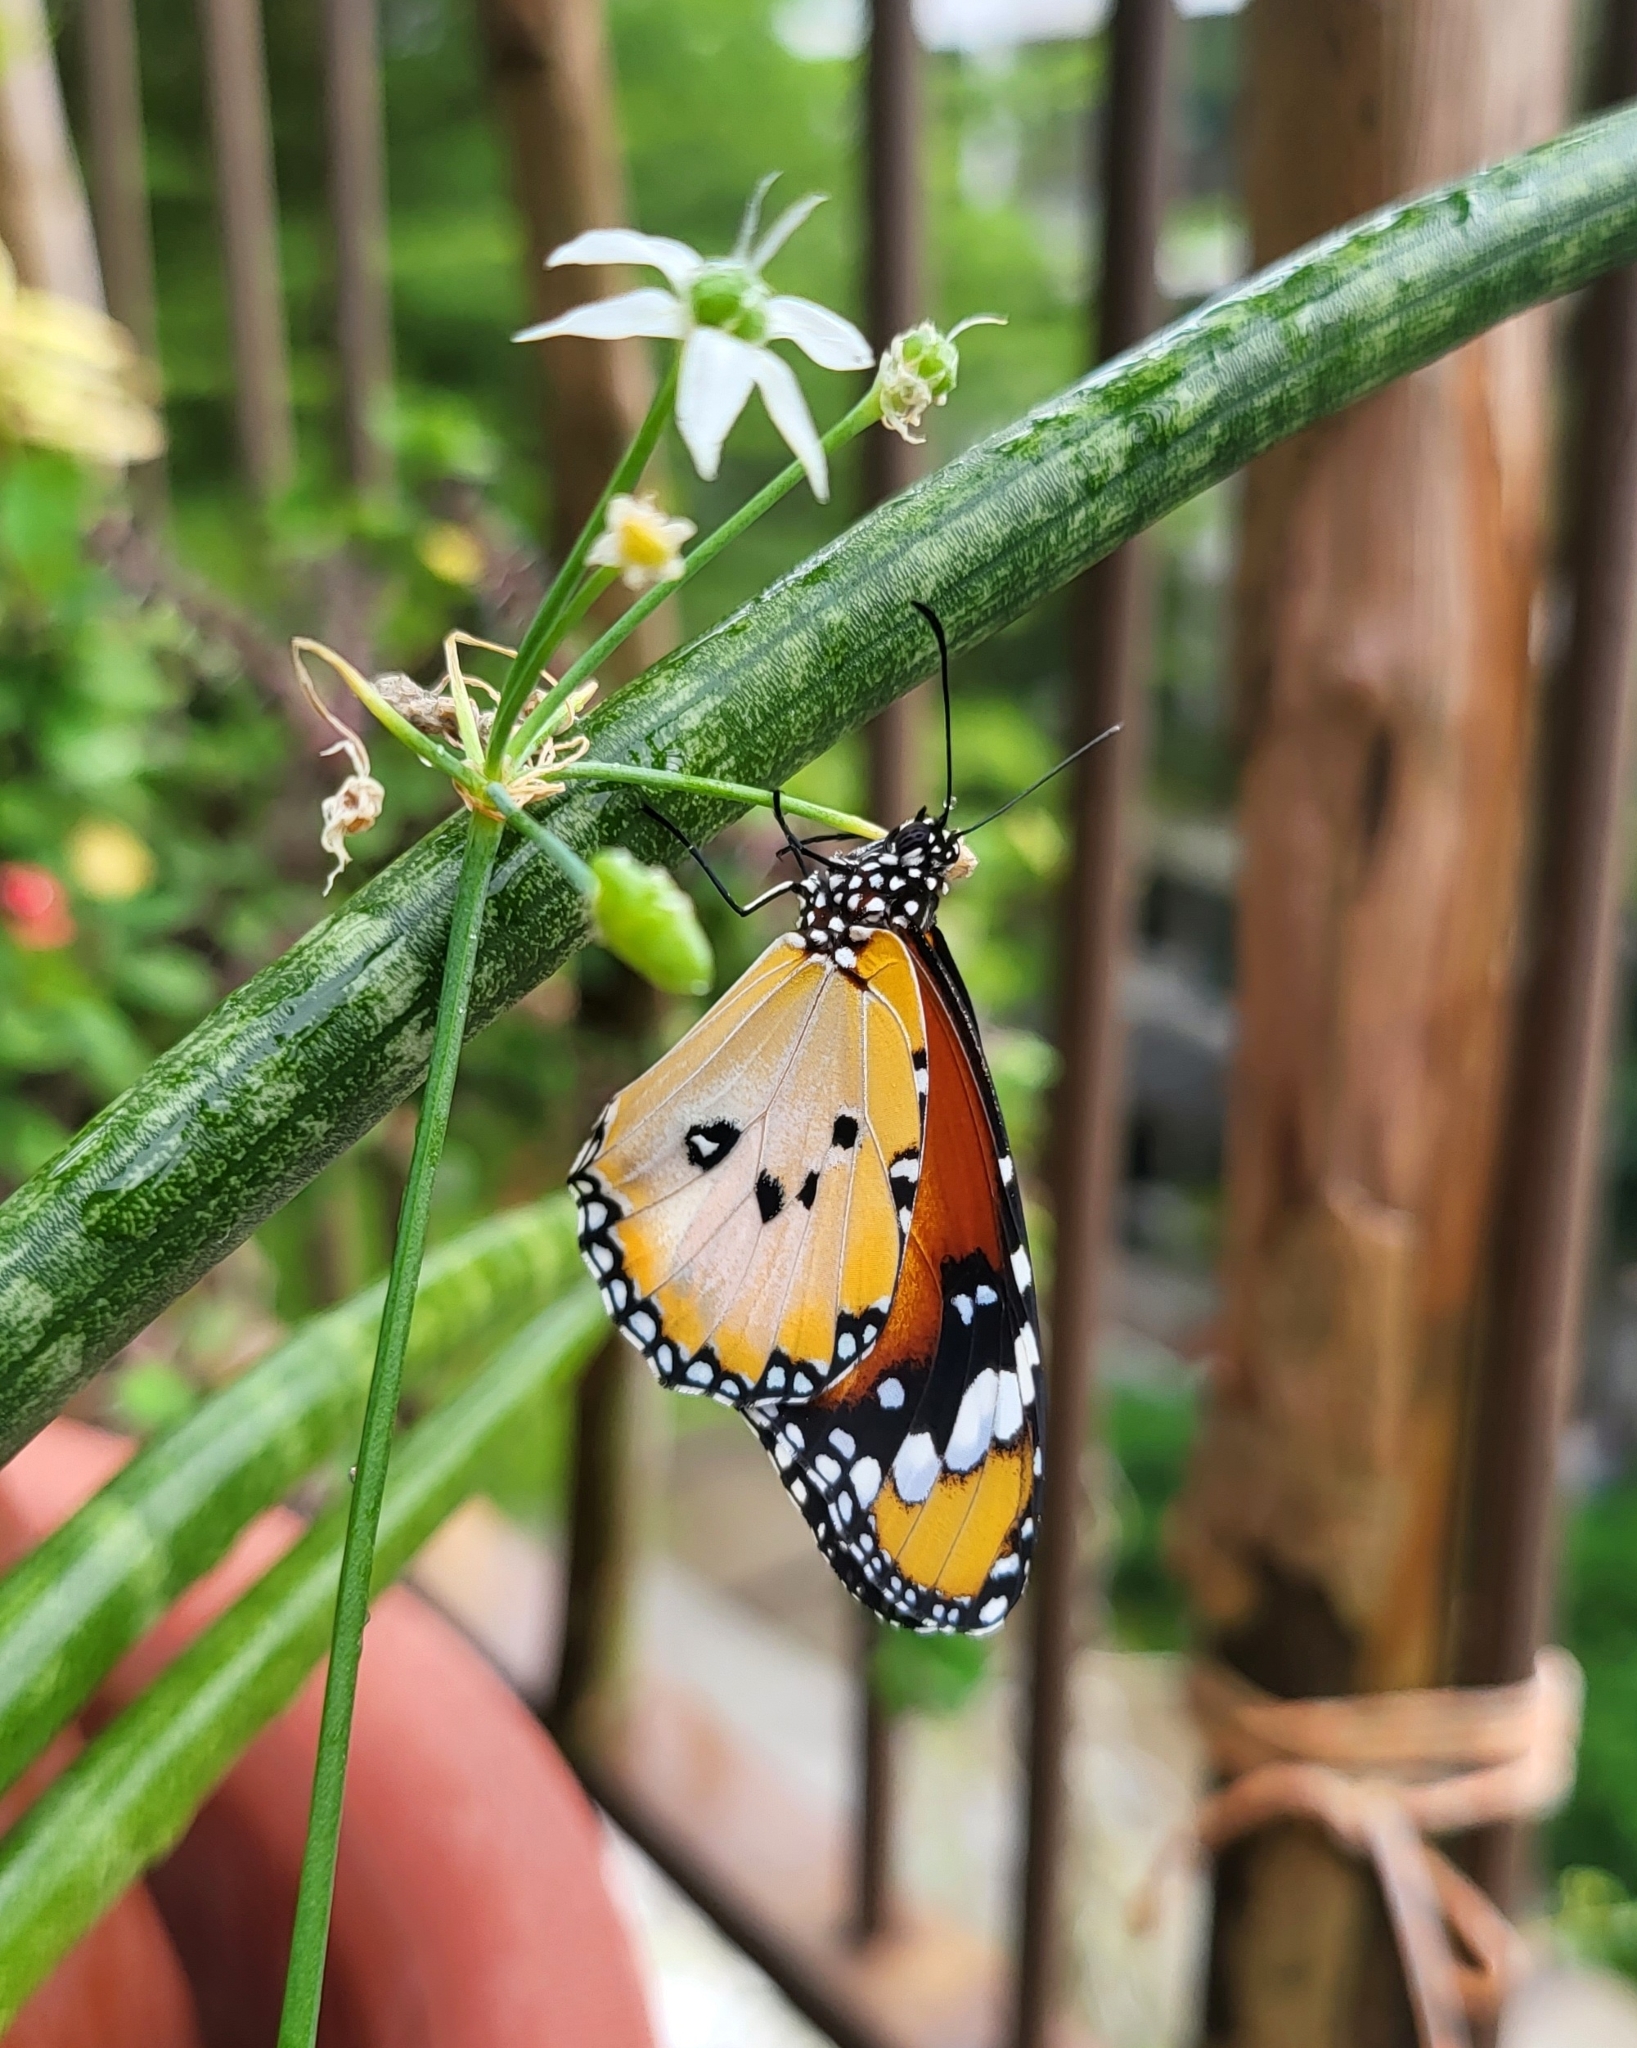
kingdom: Animalia
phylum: Arthropoda
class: Insecta
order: Lepidoptera
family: Nymphalidae
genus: Danaus
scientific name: Danaus chrysippus
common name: Plain tiger
